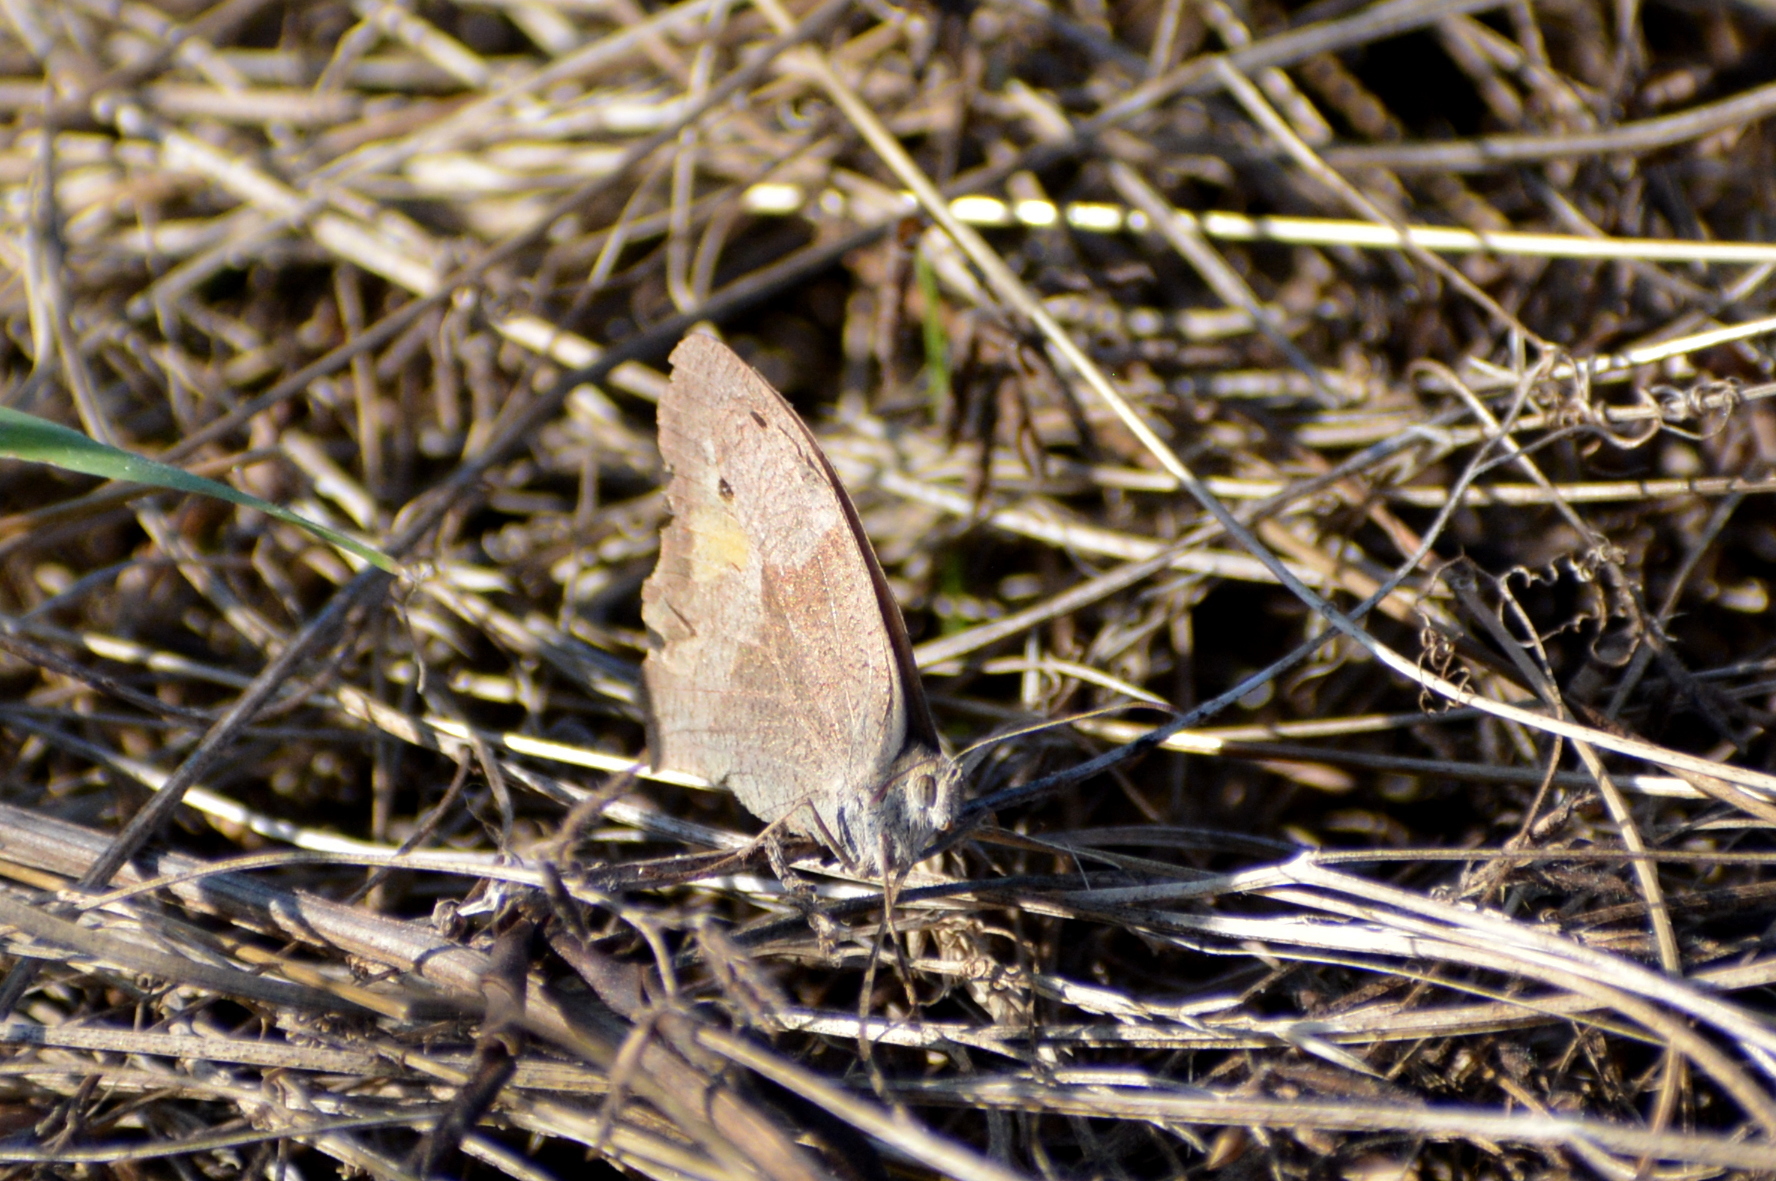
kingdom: Animalia
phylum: Arthropoda
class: Insecta
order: Lepidoptera
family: Nymphalidae
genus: Maniola
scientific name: Maniola jurtina
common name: Meadow brown
